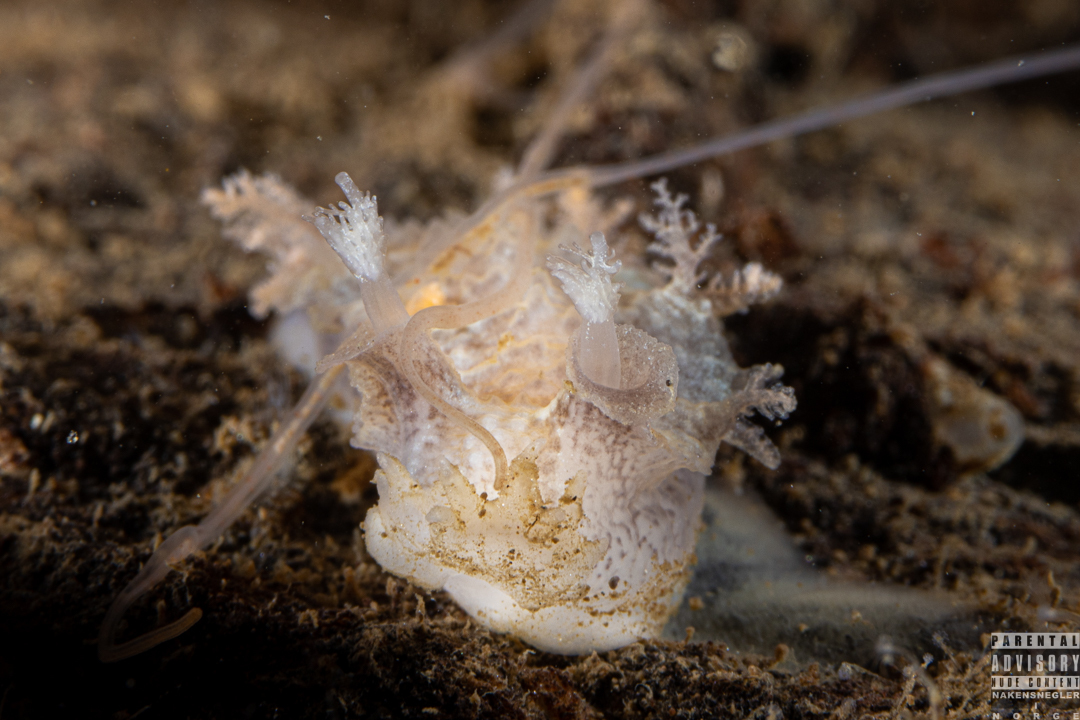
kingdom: Animalia
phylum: Mollusca
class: Gastropoda
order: Nudibranchia
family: Tritoniidae
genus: Duvaucelia
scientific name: Duvaucelia plebeia
